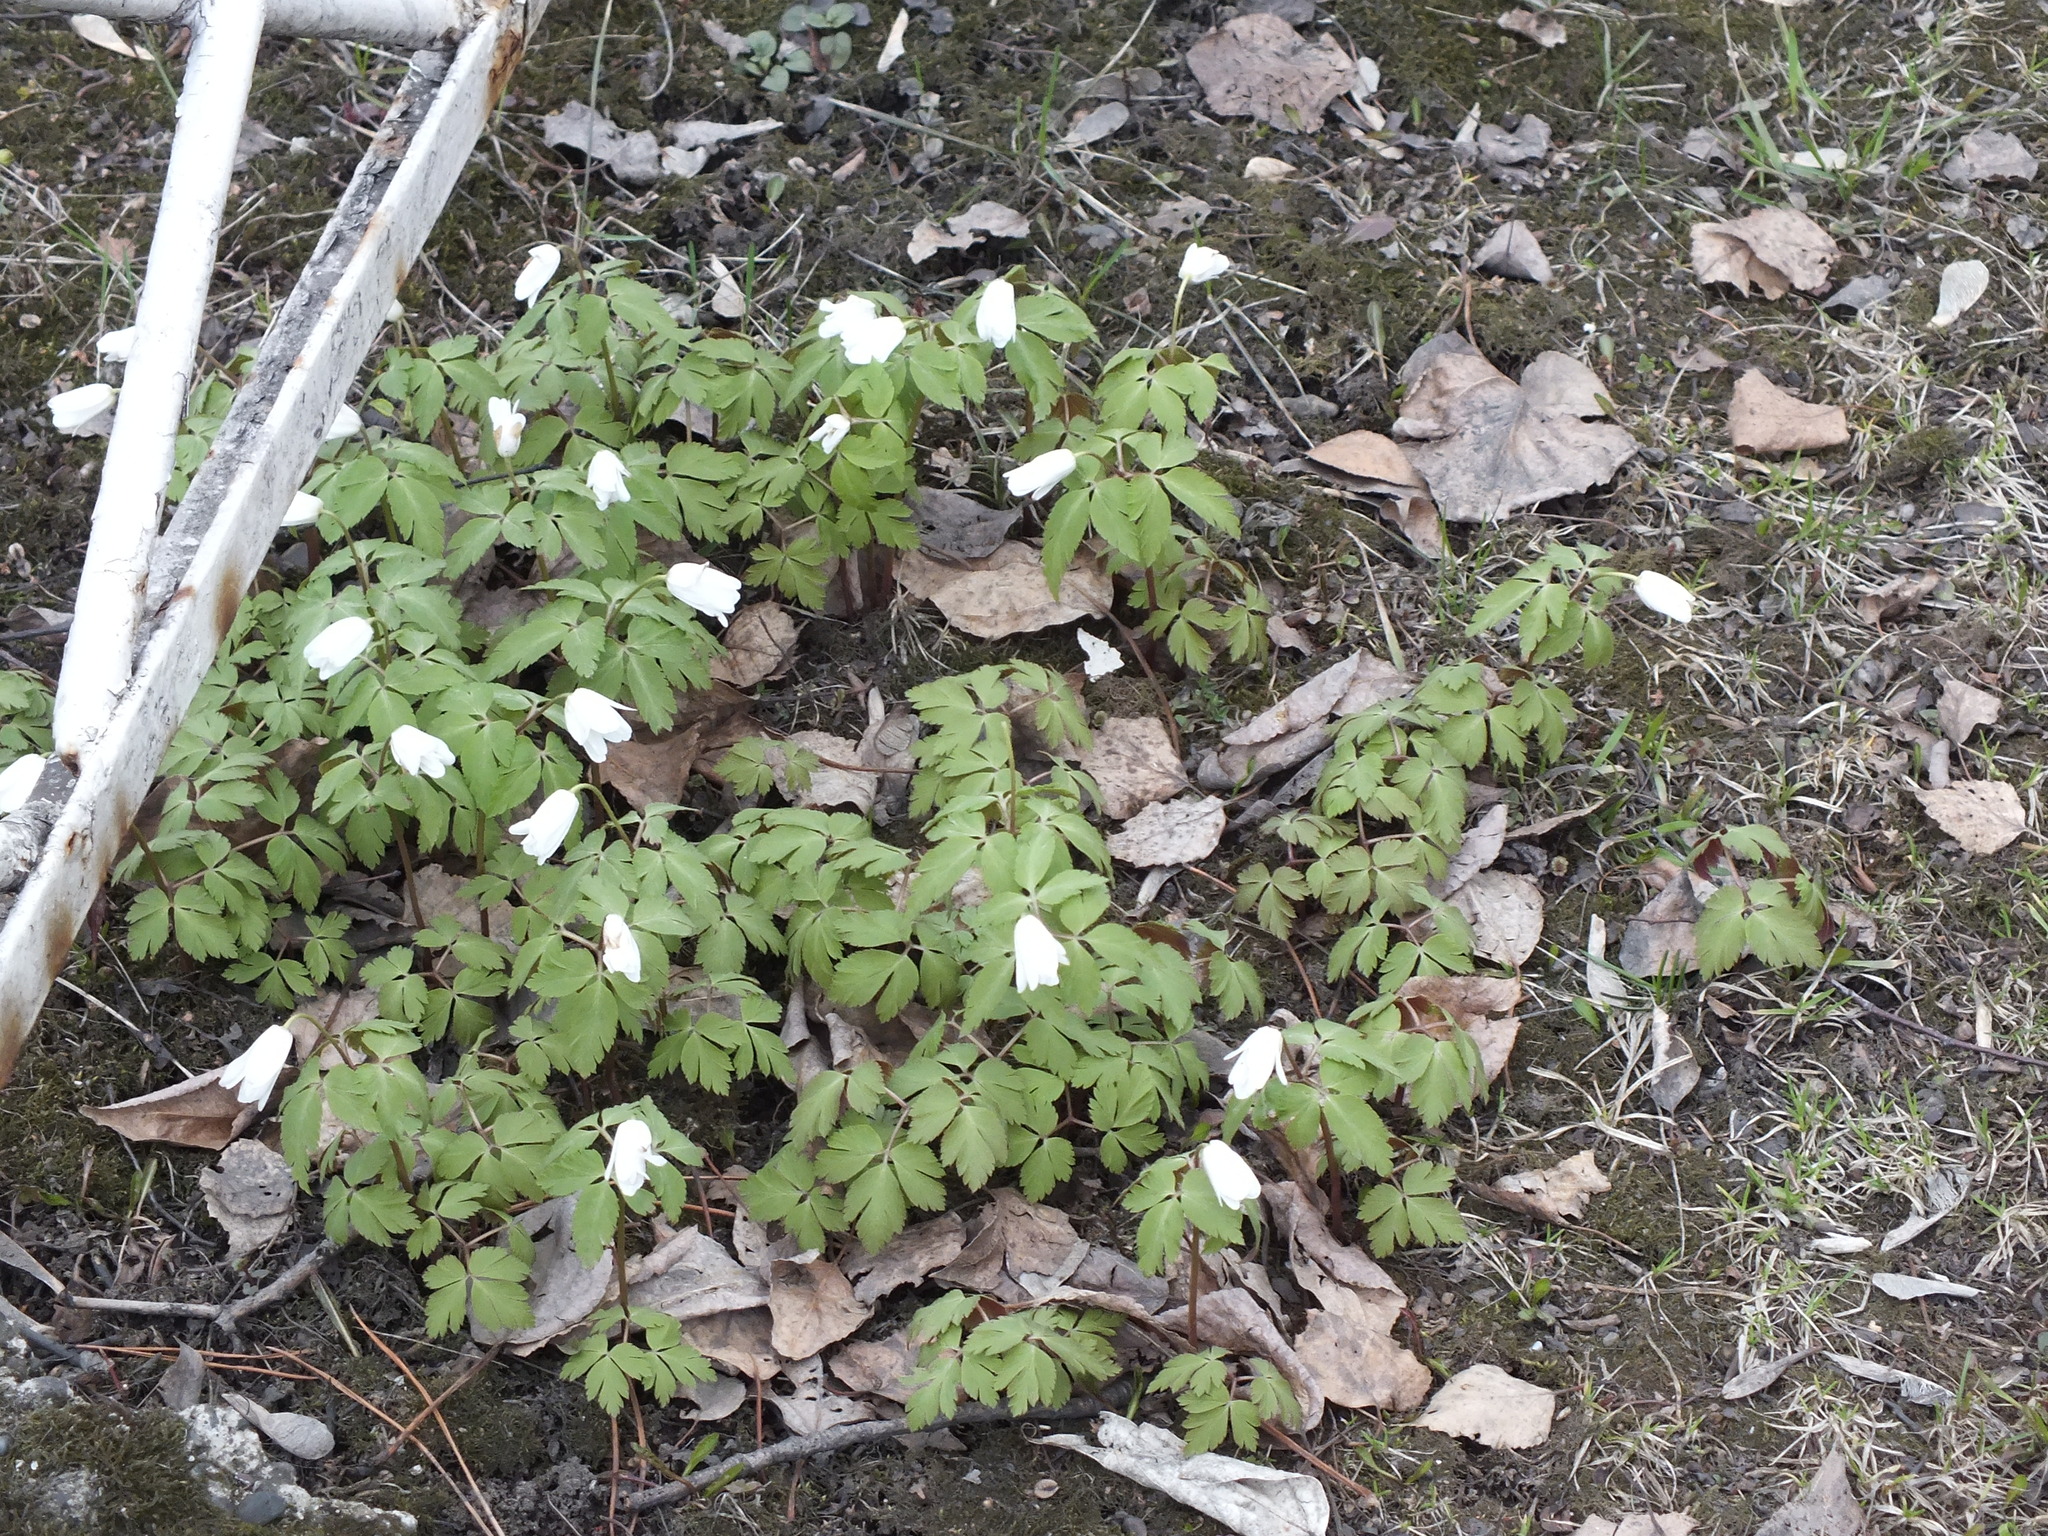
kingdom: Plantae
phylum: Tracheophyta
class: Magnoliopsida
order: Ranunculales
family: Ranunculaceae
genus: Anemone
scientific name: Anemone altaica
